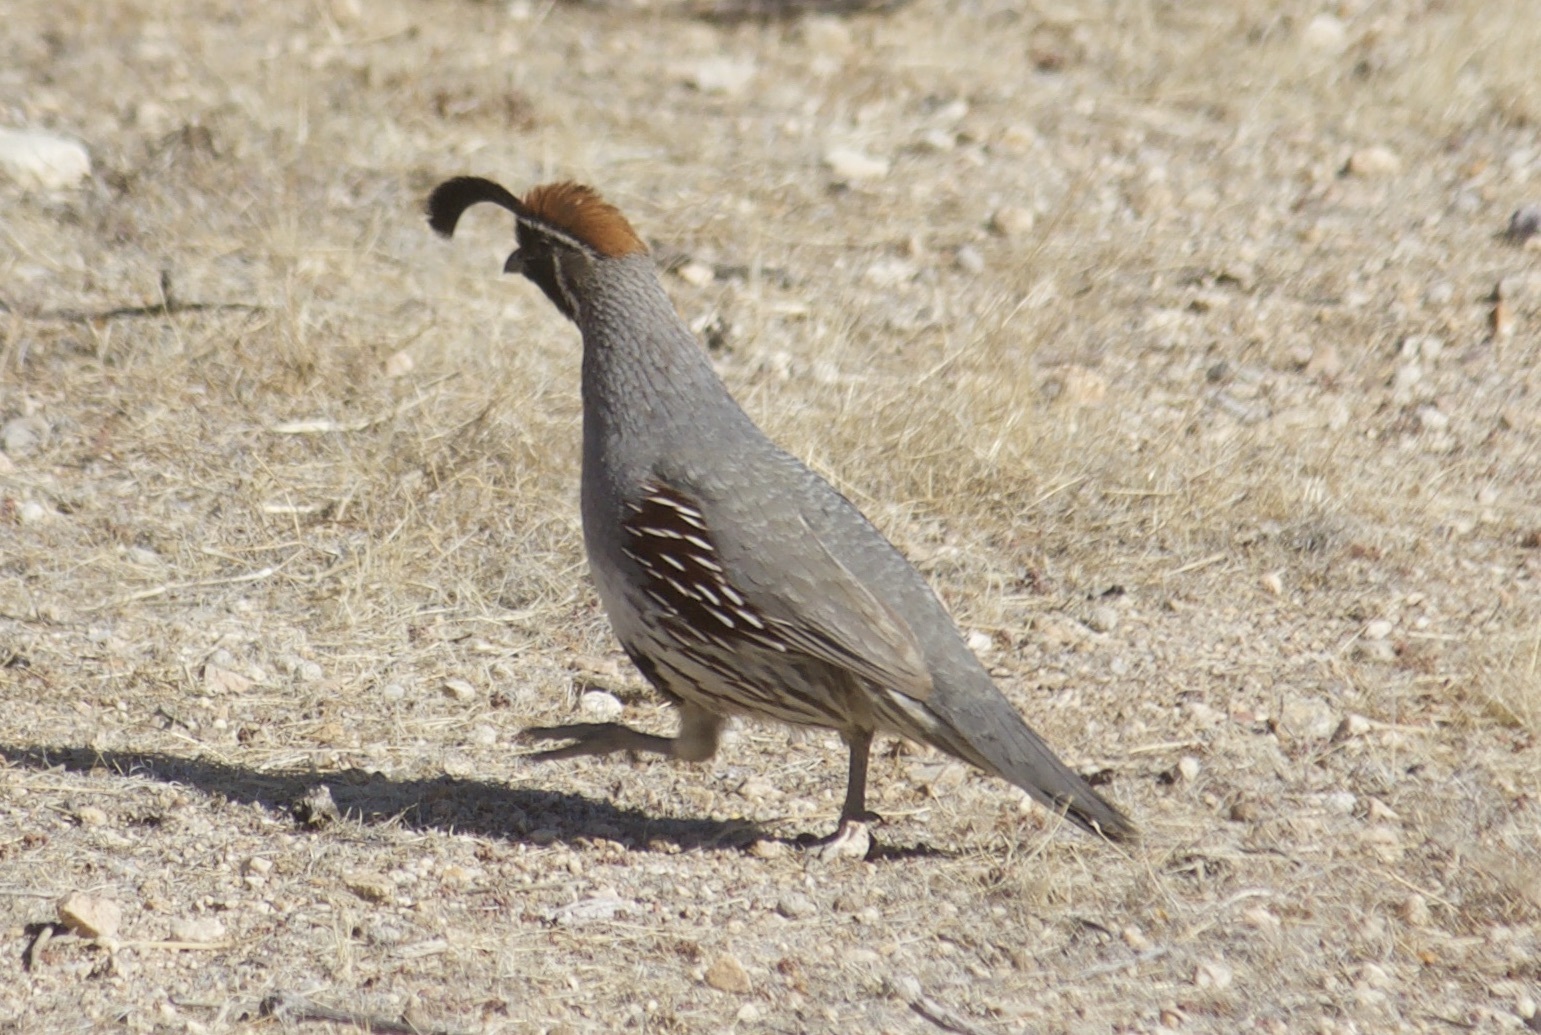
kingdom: Animalia
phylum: Chordata
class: Aves
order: Galliformes
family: Odontophoridae
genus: Callipepla
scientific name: Callipepla gambelii
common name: Gambel's quail
